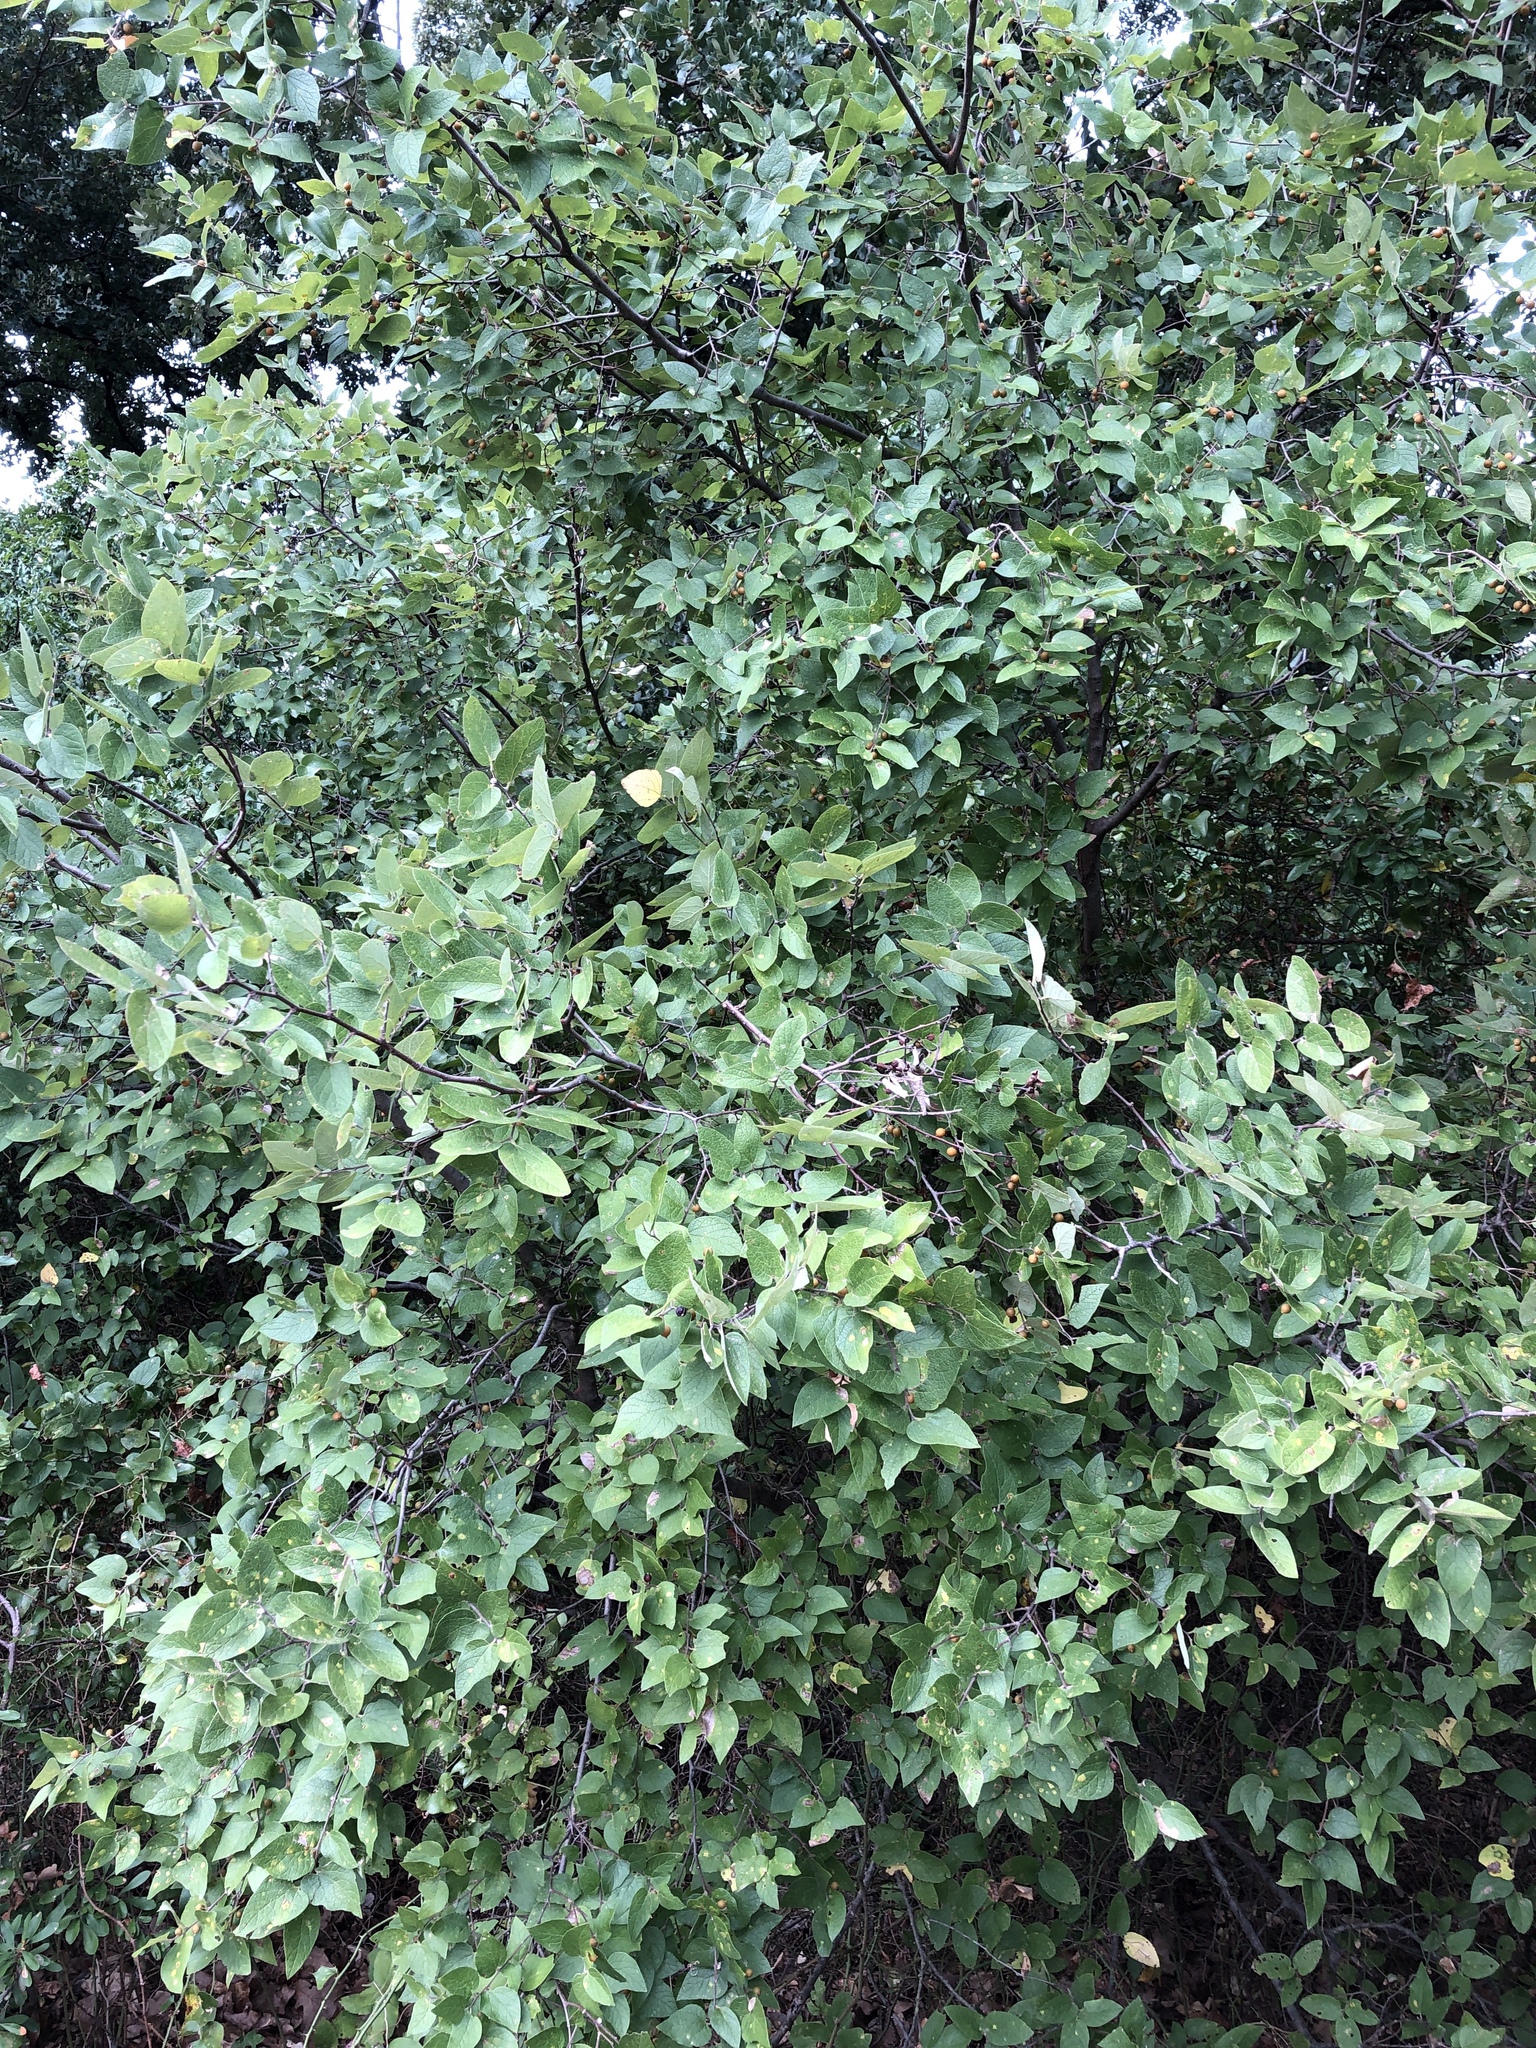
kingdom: Plantae
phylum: Tracheophyta
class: Magnoliopsida
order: Rosales
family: Cannabaceae
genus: Celtis
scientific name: Celtis reticulata
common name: Netleaf hackberry
